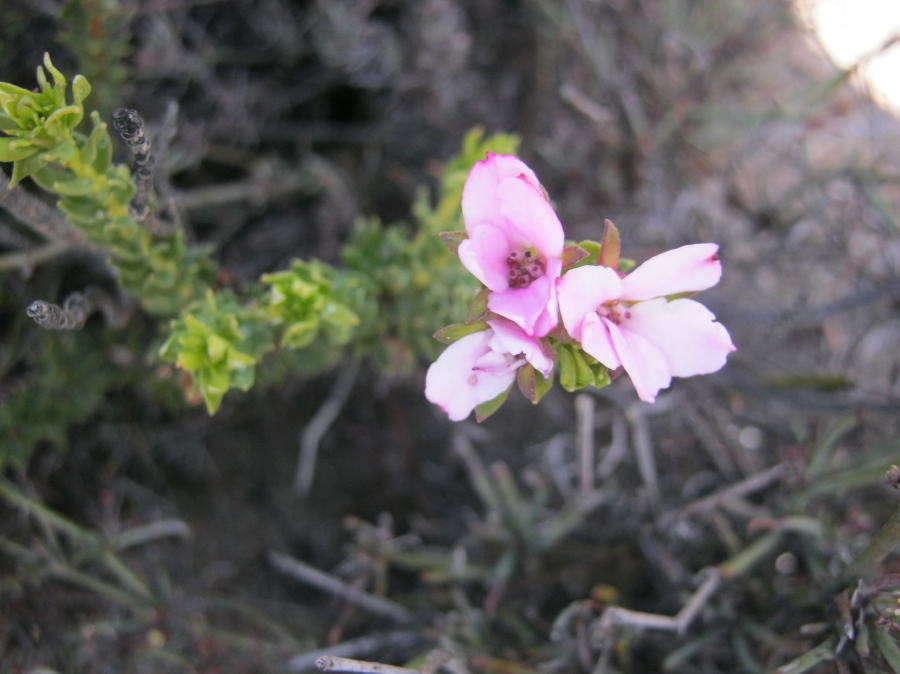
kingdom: Plantae
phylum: Tracheophyta
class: Magnoliopsida
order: Sapindales
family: Rutaceae
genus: Adenandra
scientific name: Adenandra dahlgrenii
